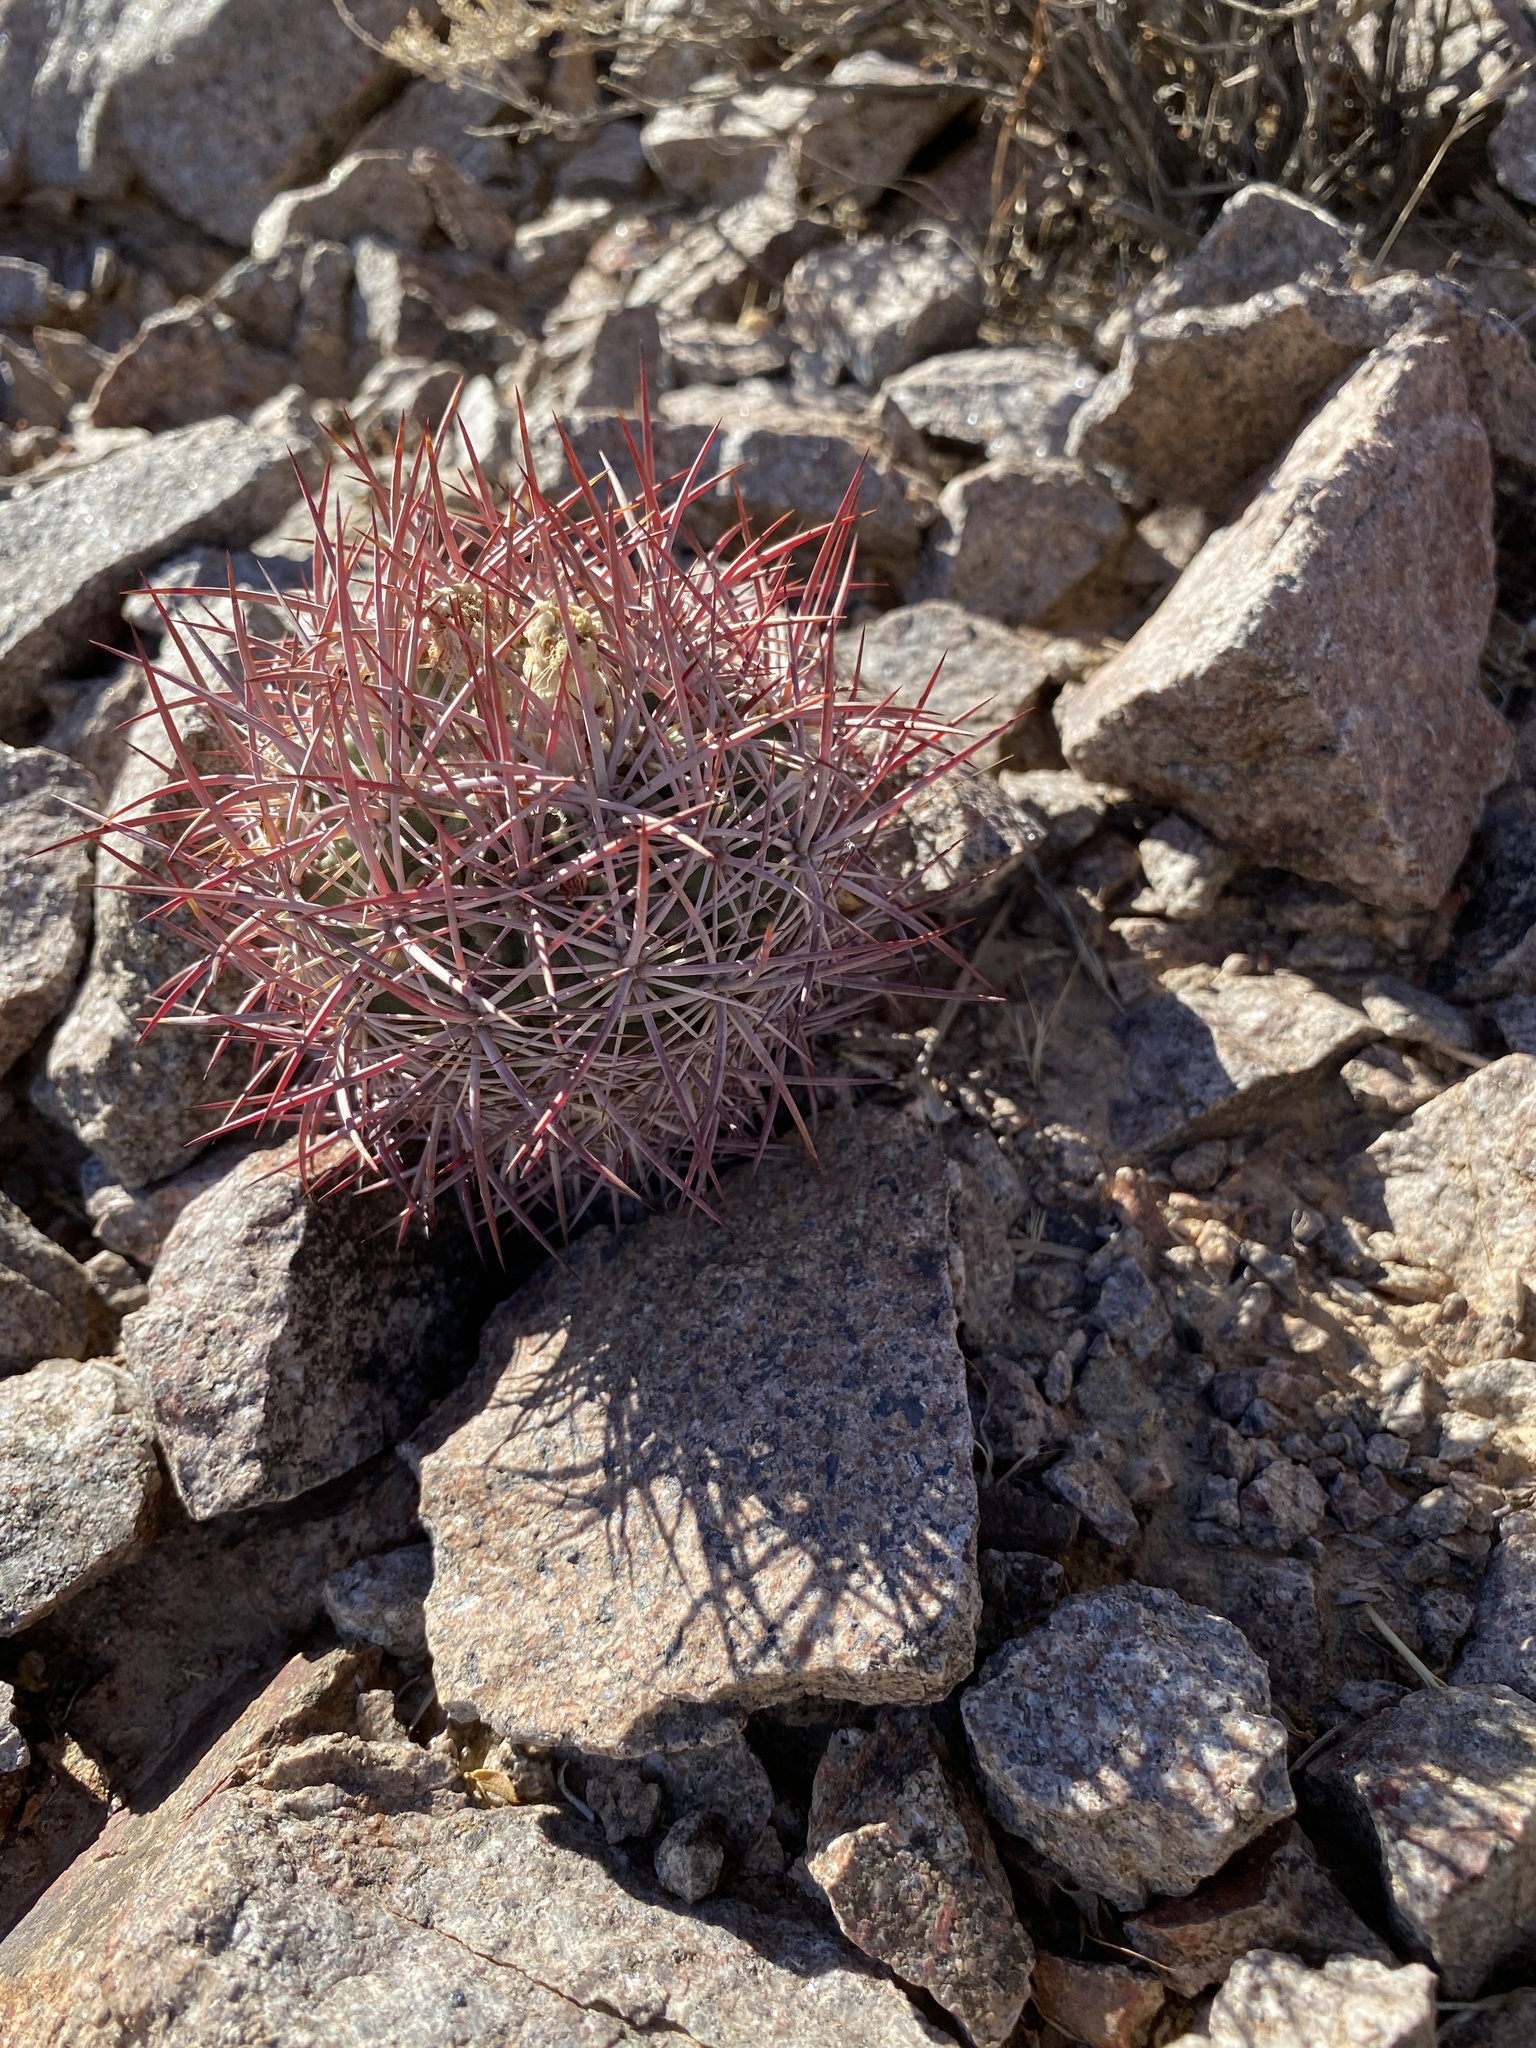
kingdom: Plantae
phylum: Tracheophyta
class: Magnoliopsida
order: Caryophyllales
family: Cactaceae
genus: Sclerocactus
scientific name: Sclerocactus johnsonii
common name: Eight-spine fishhook cactus
